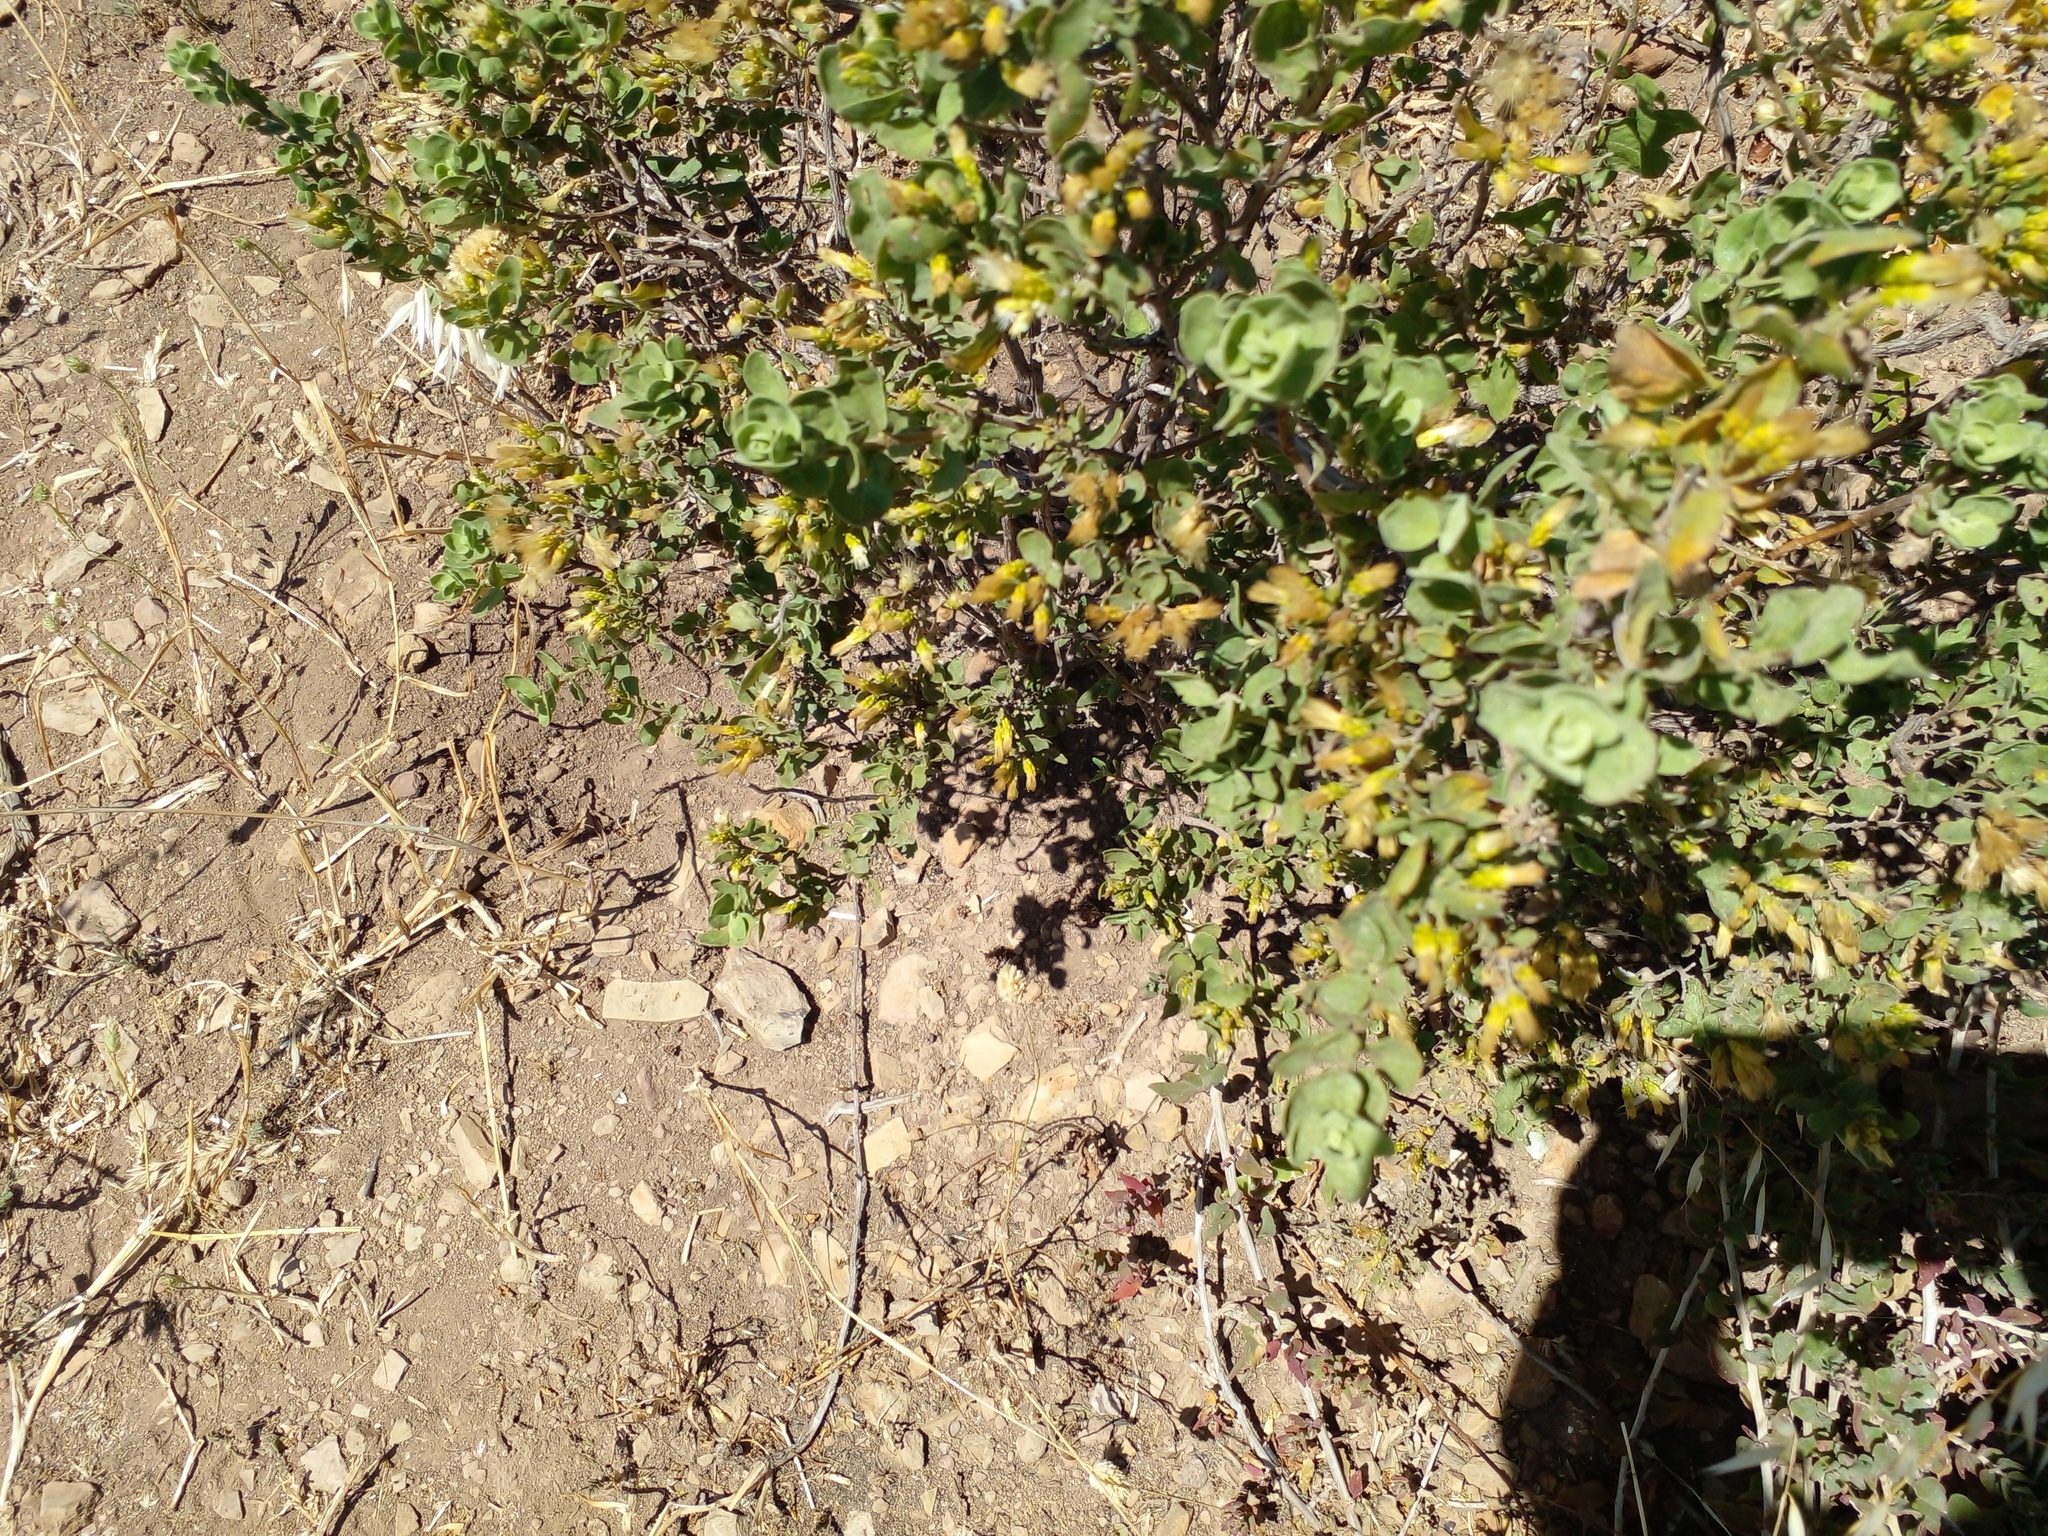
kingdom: Plantae
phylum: Tracheophyta
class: Magnoliopsida
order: Asterales
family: Asteraceae
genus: Pteronia
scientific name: Pteronia divaricata
